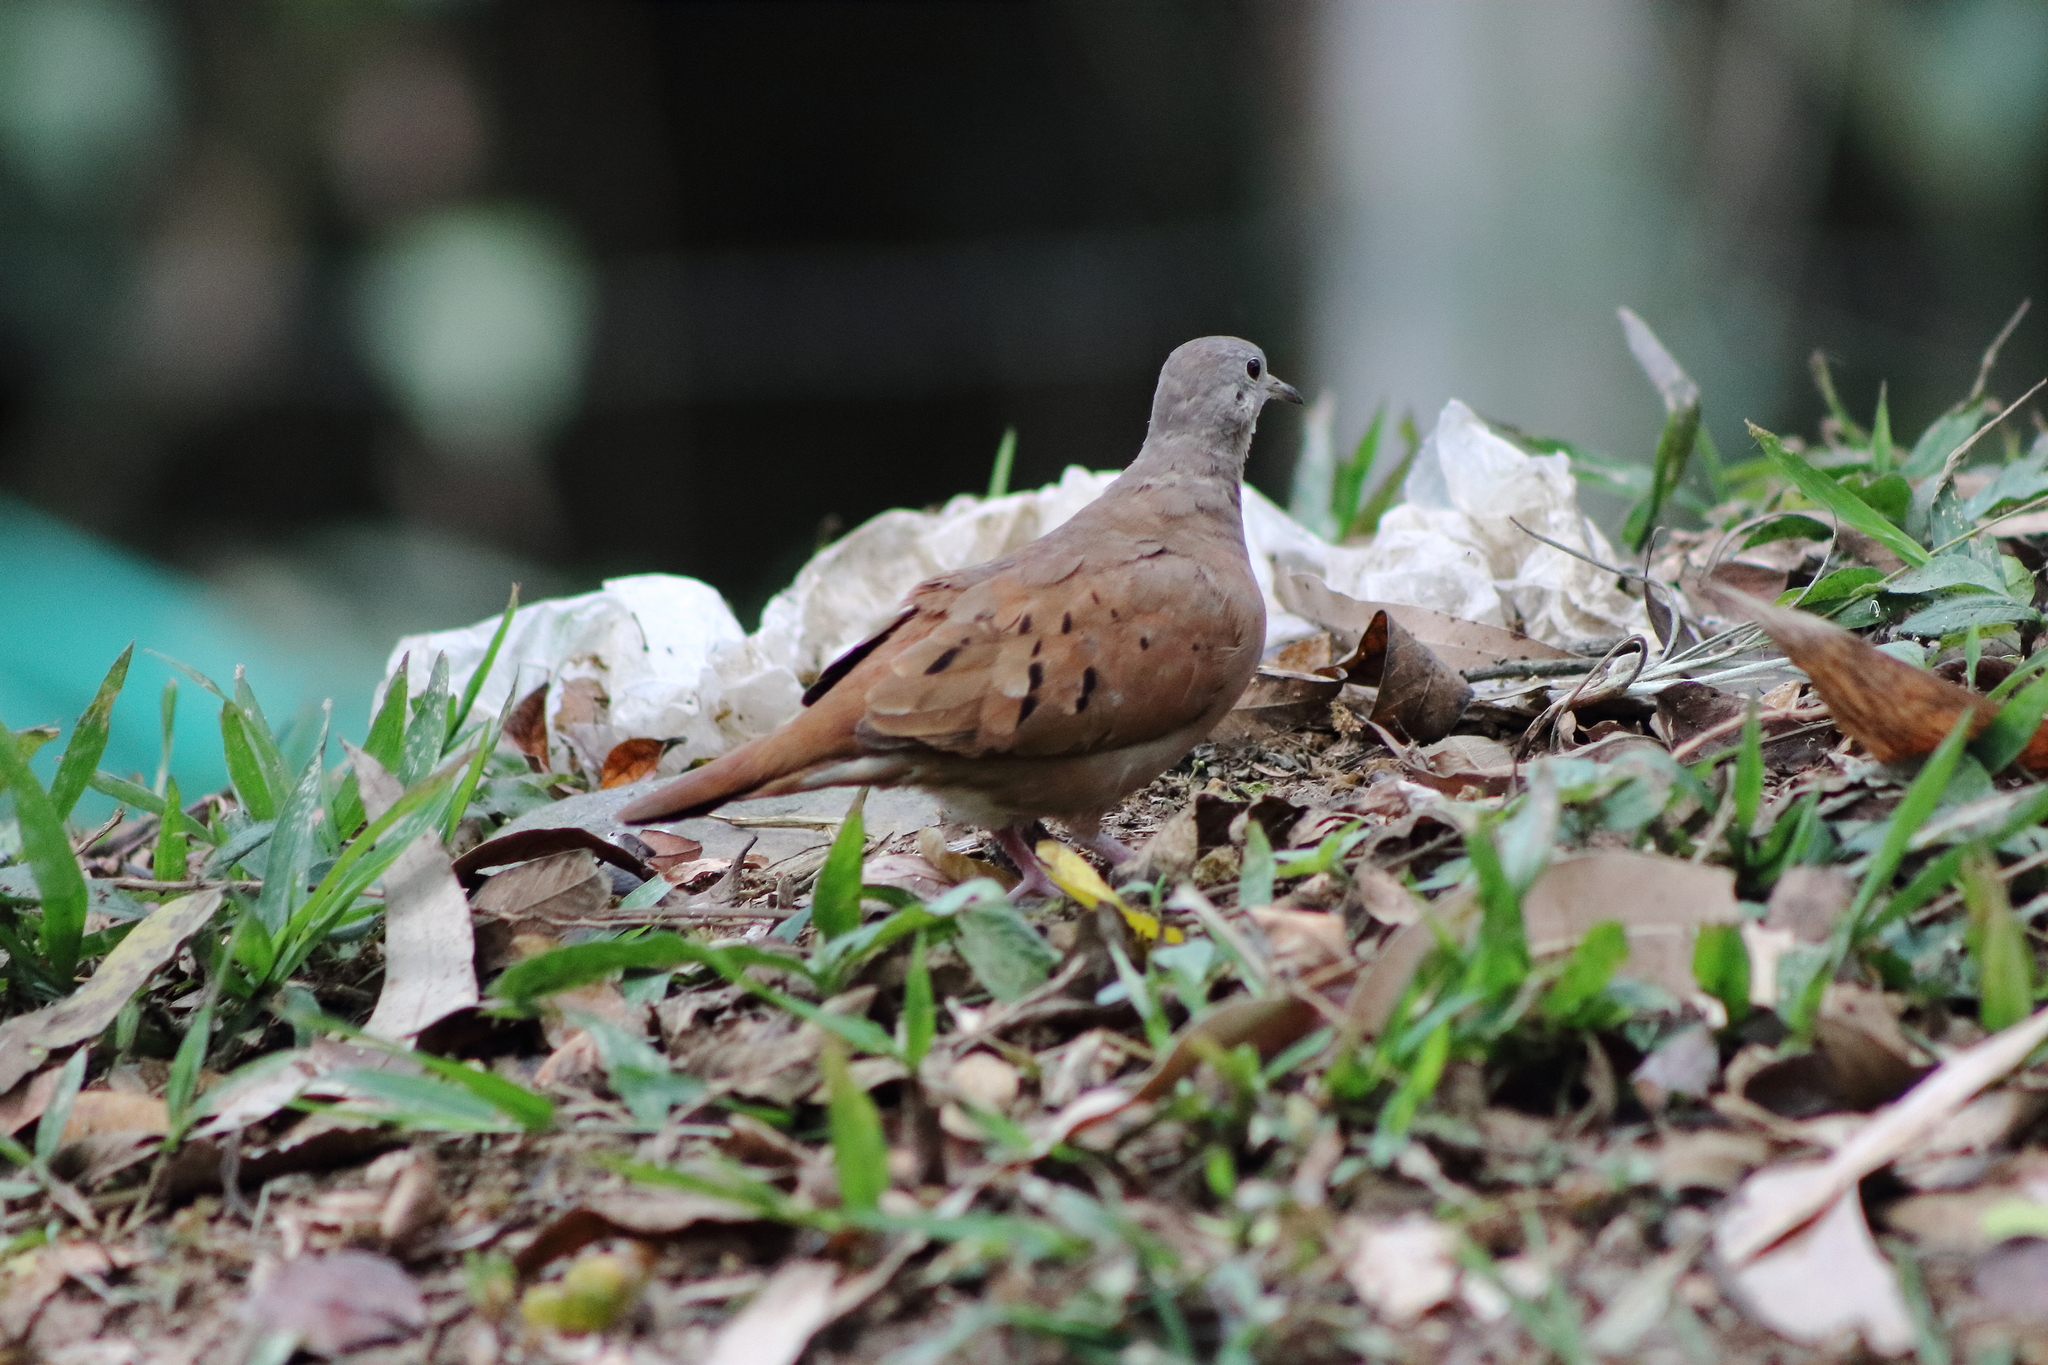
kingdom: Animalia
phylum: Chordata
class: Aves
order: Columbiformes
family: Columbidae
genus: Columbina
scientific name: Columbina talpacoti
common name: Ruddy ground dove
